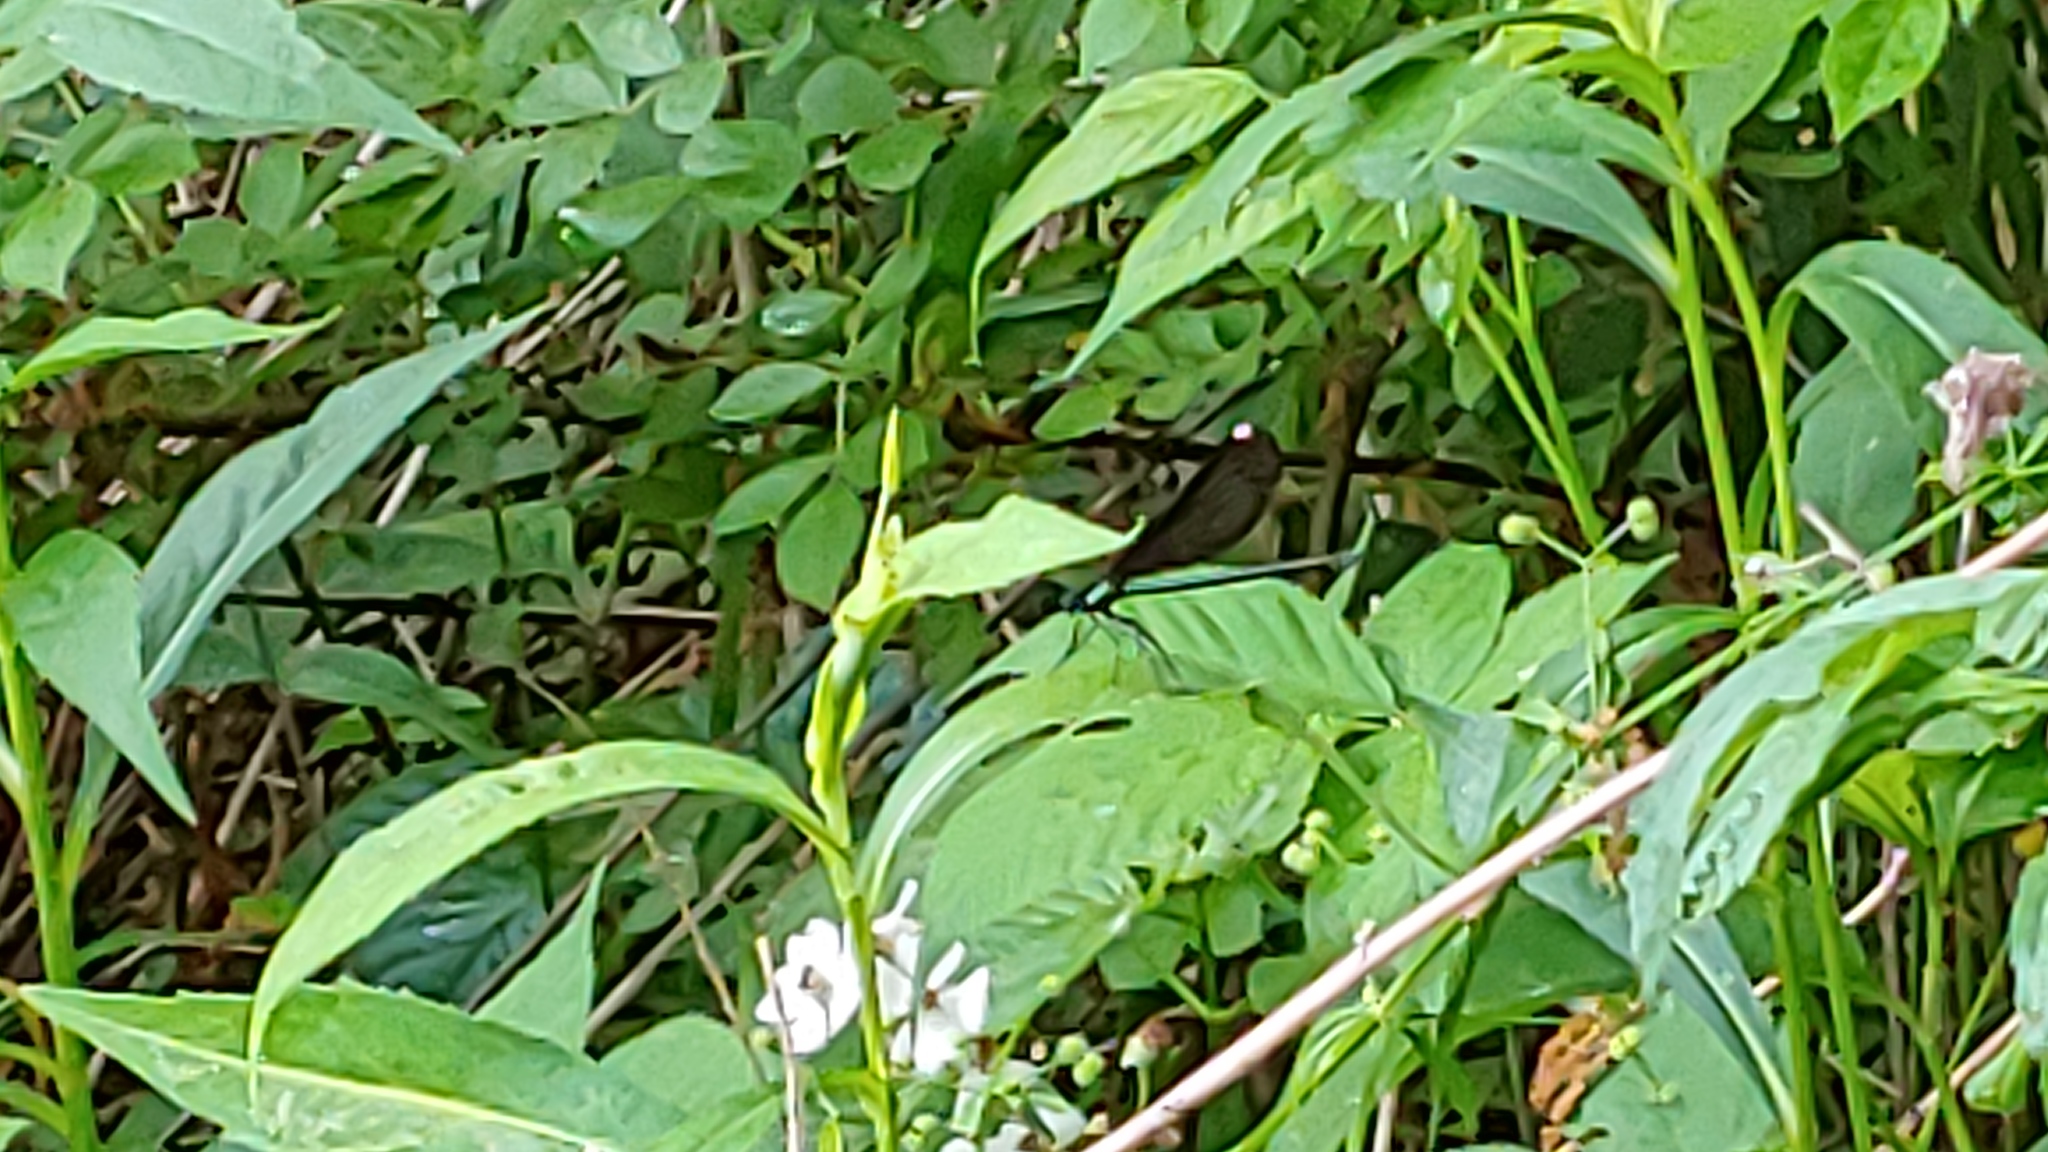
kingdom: Animalia
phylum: Arthropoda
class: Insecta
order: Odonata
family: Calopterygidae
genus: Calopteryx
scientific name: Calopteryx maculata
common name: Ebony jewelwing
